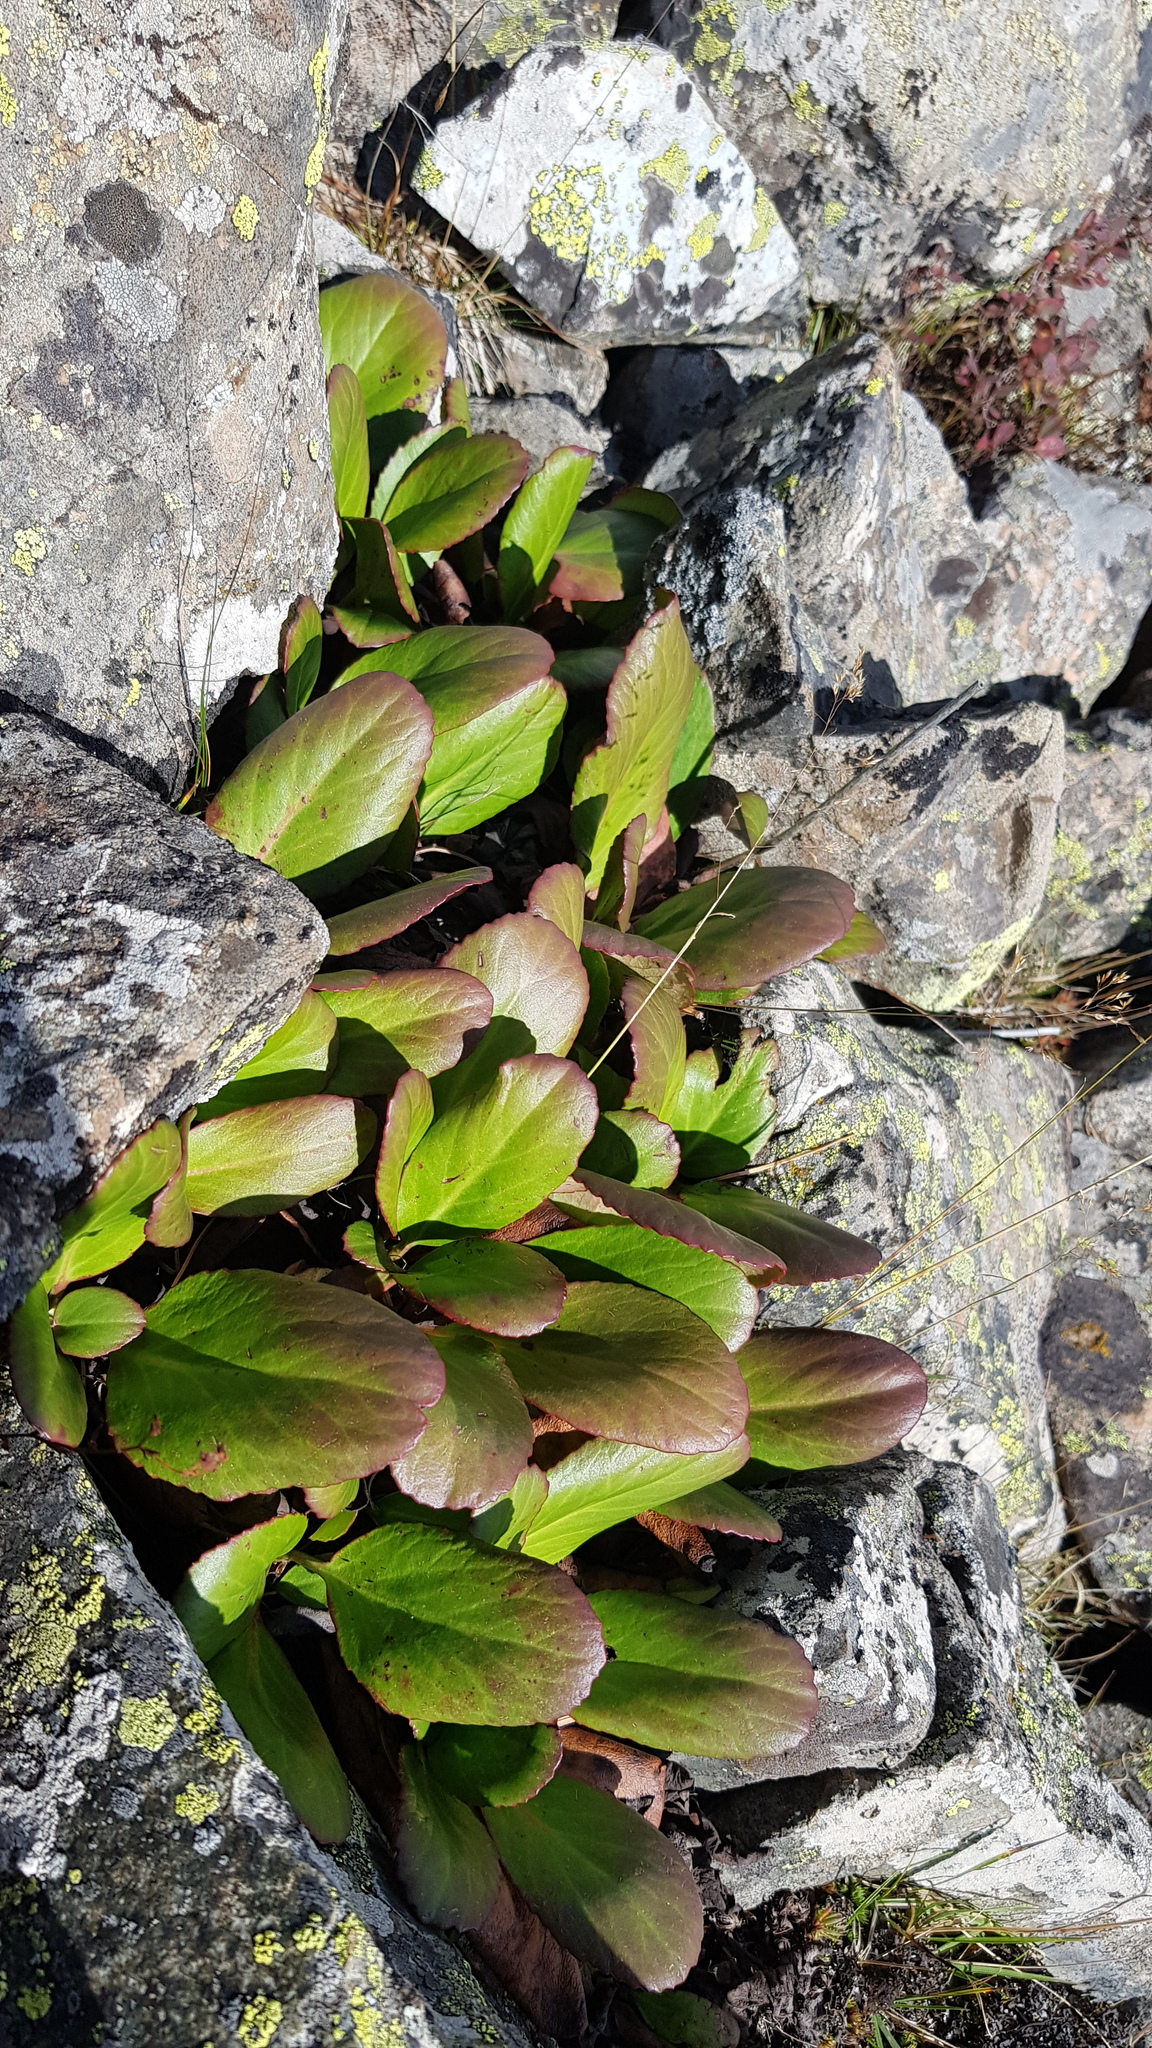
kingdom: Plantae
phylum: Tracheophyta
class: Magnoliopsida
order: Saxifragales
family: Saxifragaceae
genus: Bergenia
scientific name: Bergenia crassifolia
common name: Elephant-ears
